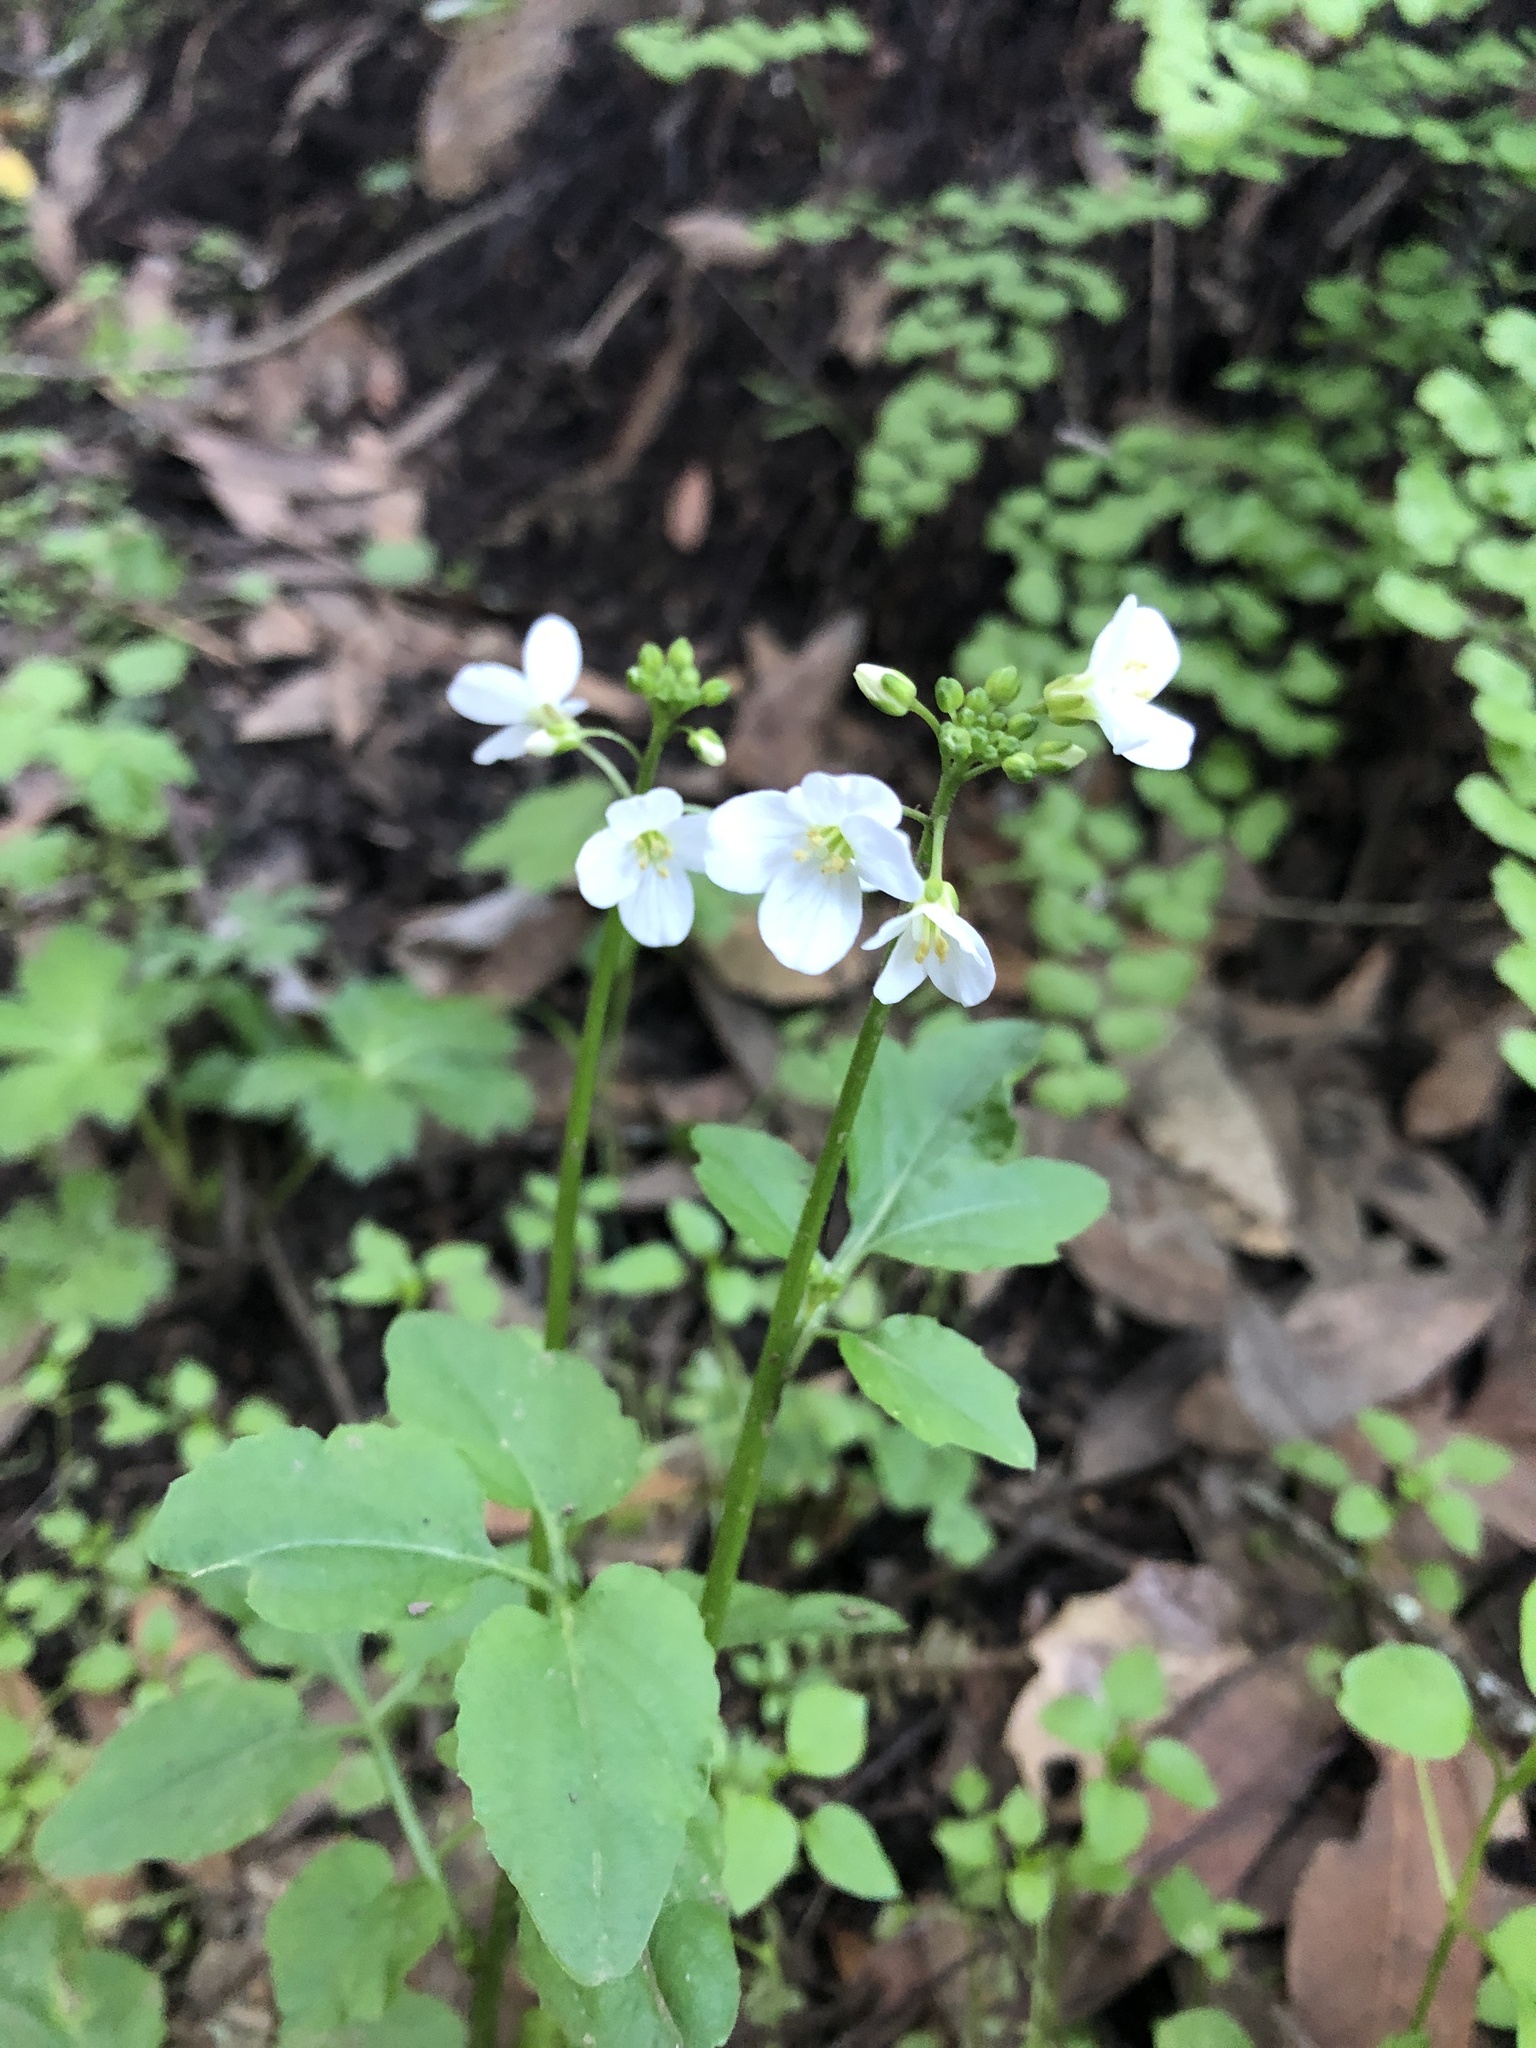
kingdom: Plantae
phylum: Tracheophyta
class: Magnoliopsida
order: Brassicales
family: Brassicaceae
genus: Cardamine
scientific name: Cardamine californica
